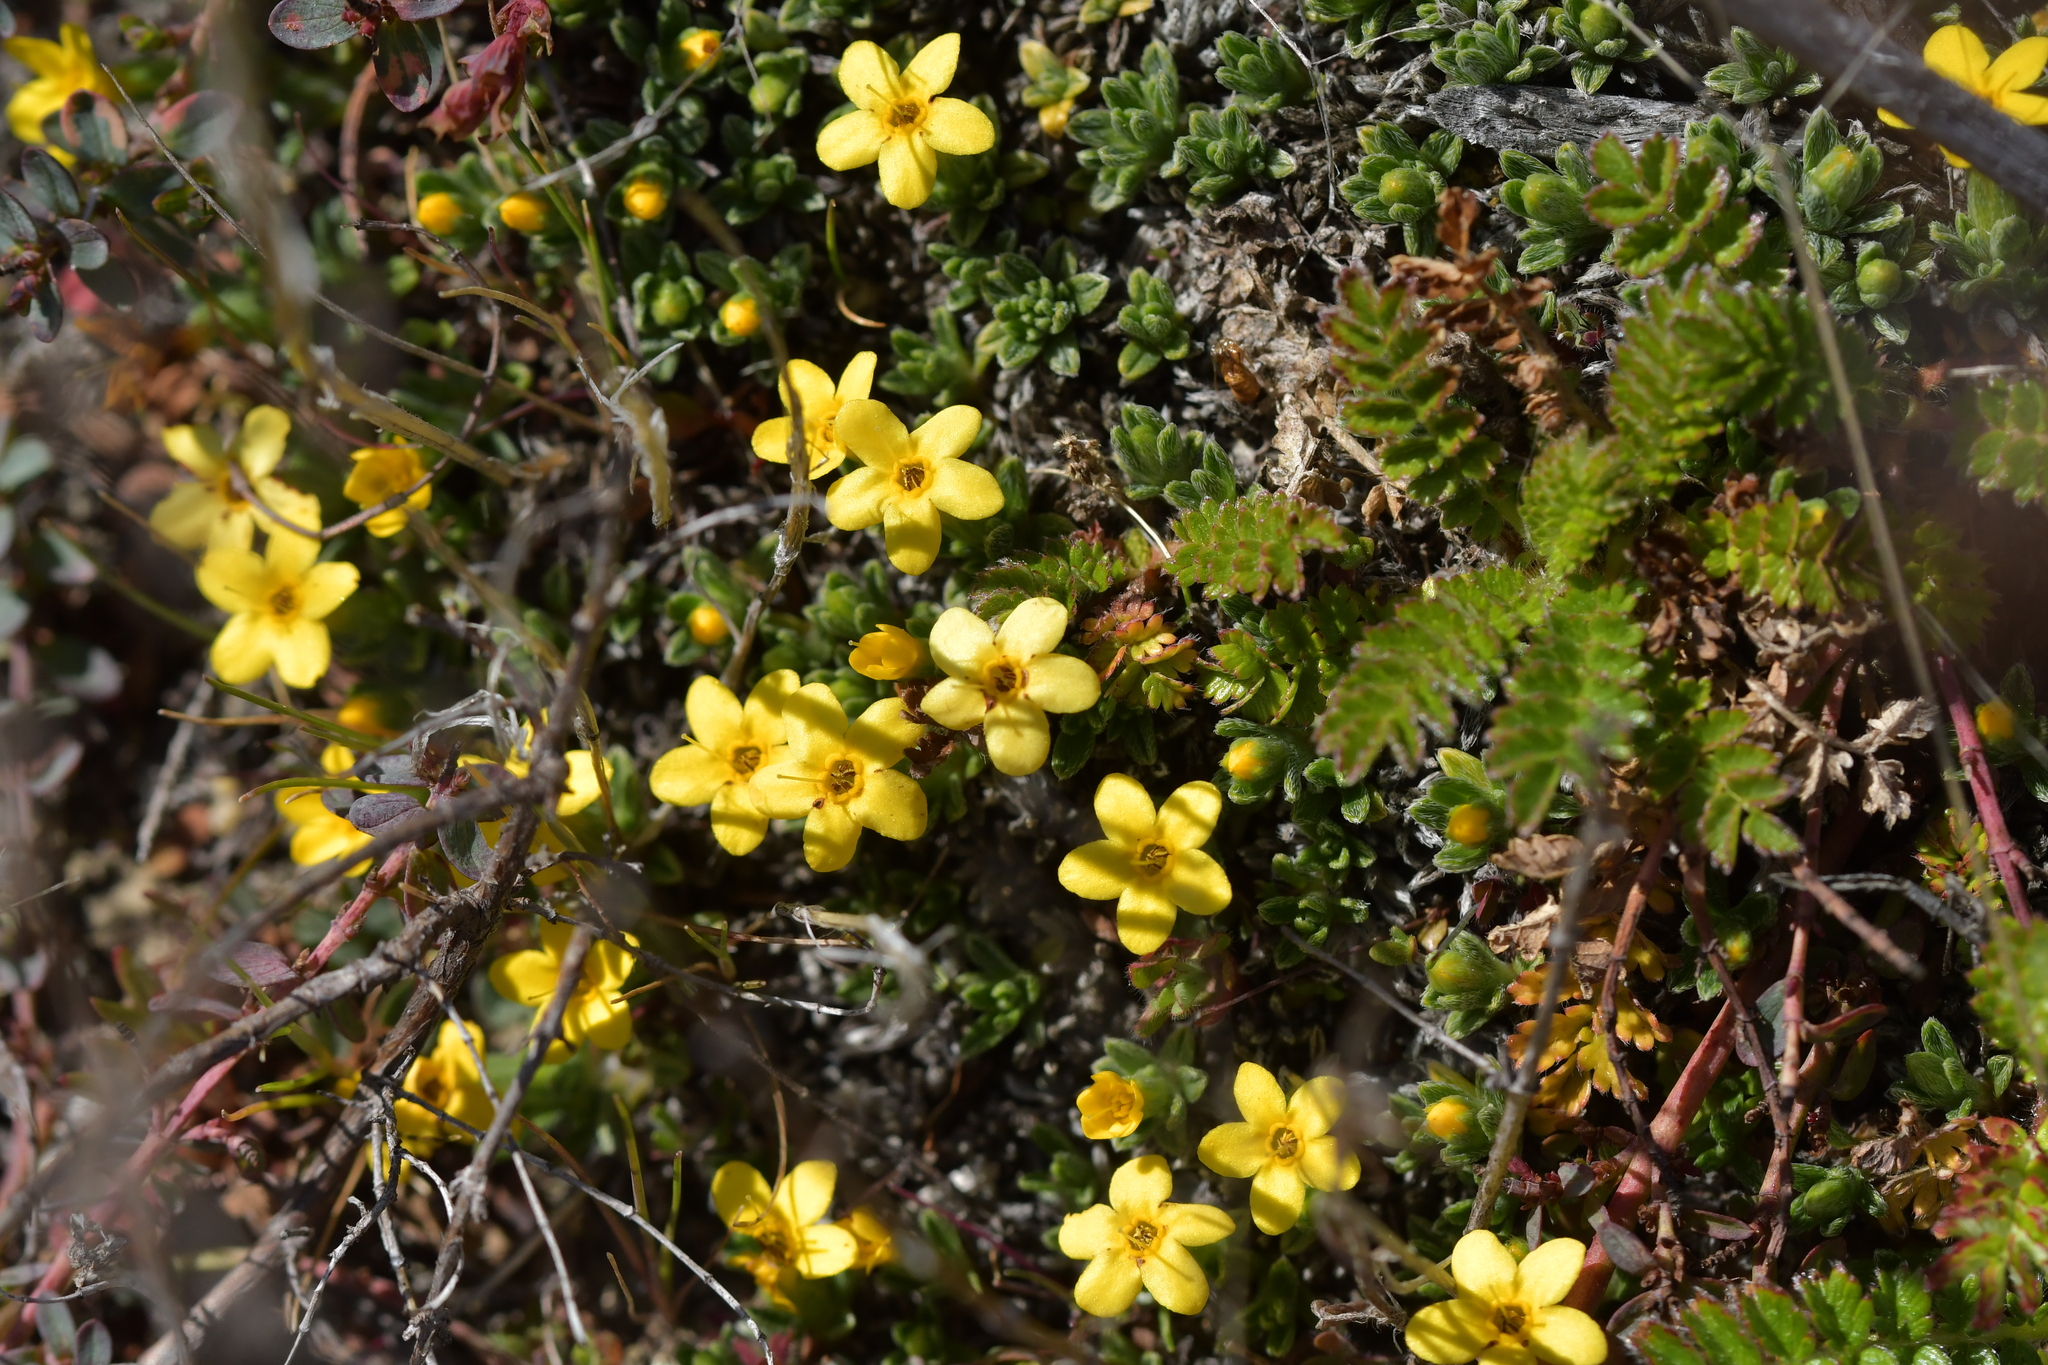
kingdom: Plantae
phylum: Tracheophyta
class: Magnoliopsida
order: Boraginales
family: Boraginaceae
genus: Myosotis
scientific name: Myosotis uniflora
